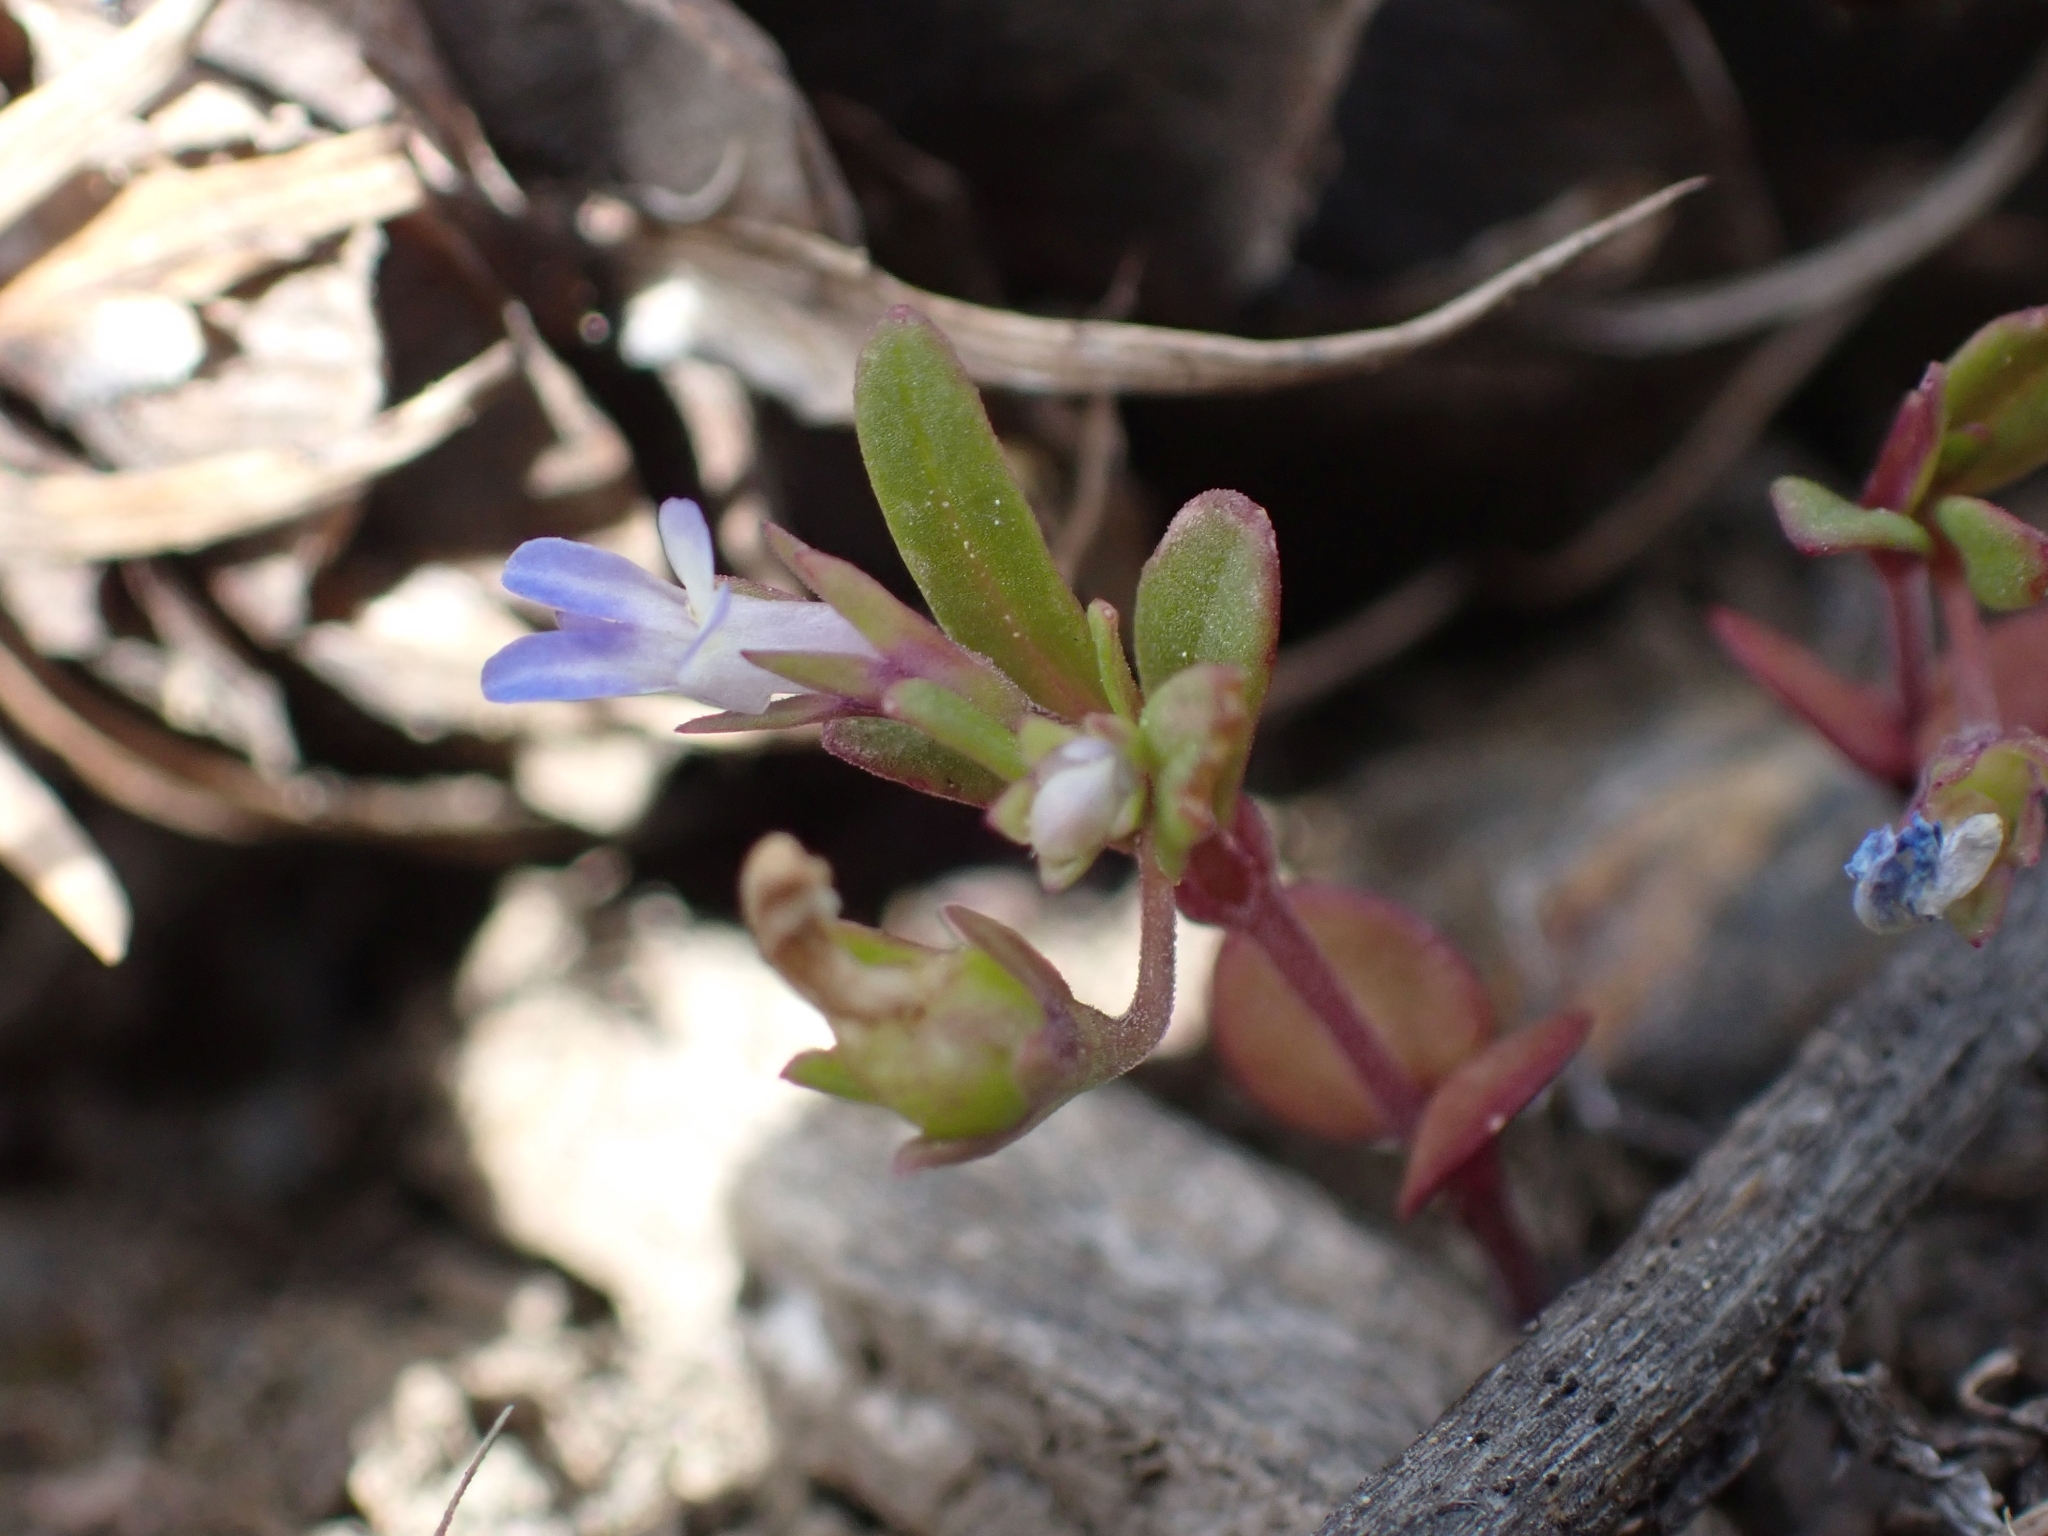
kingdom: Plantae
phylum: Tracheophyta
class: Magnoliopsida
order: Lamiales
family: Plantaginaceae
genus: Collinsia
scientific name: Collinsia parviflora
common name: Blue-lips
